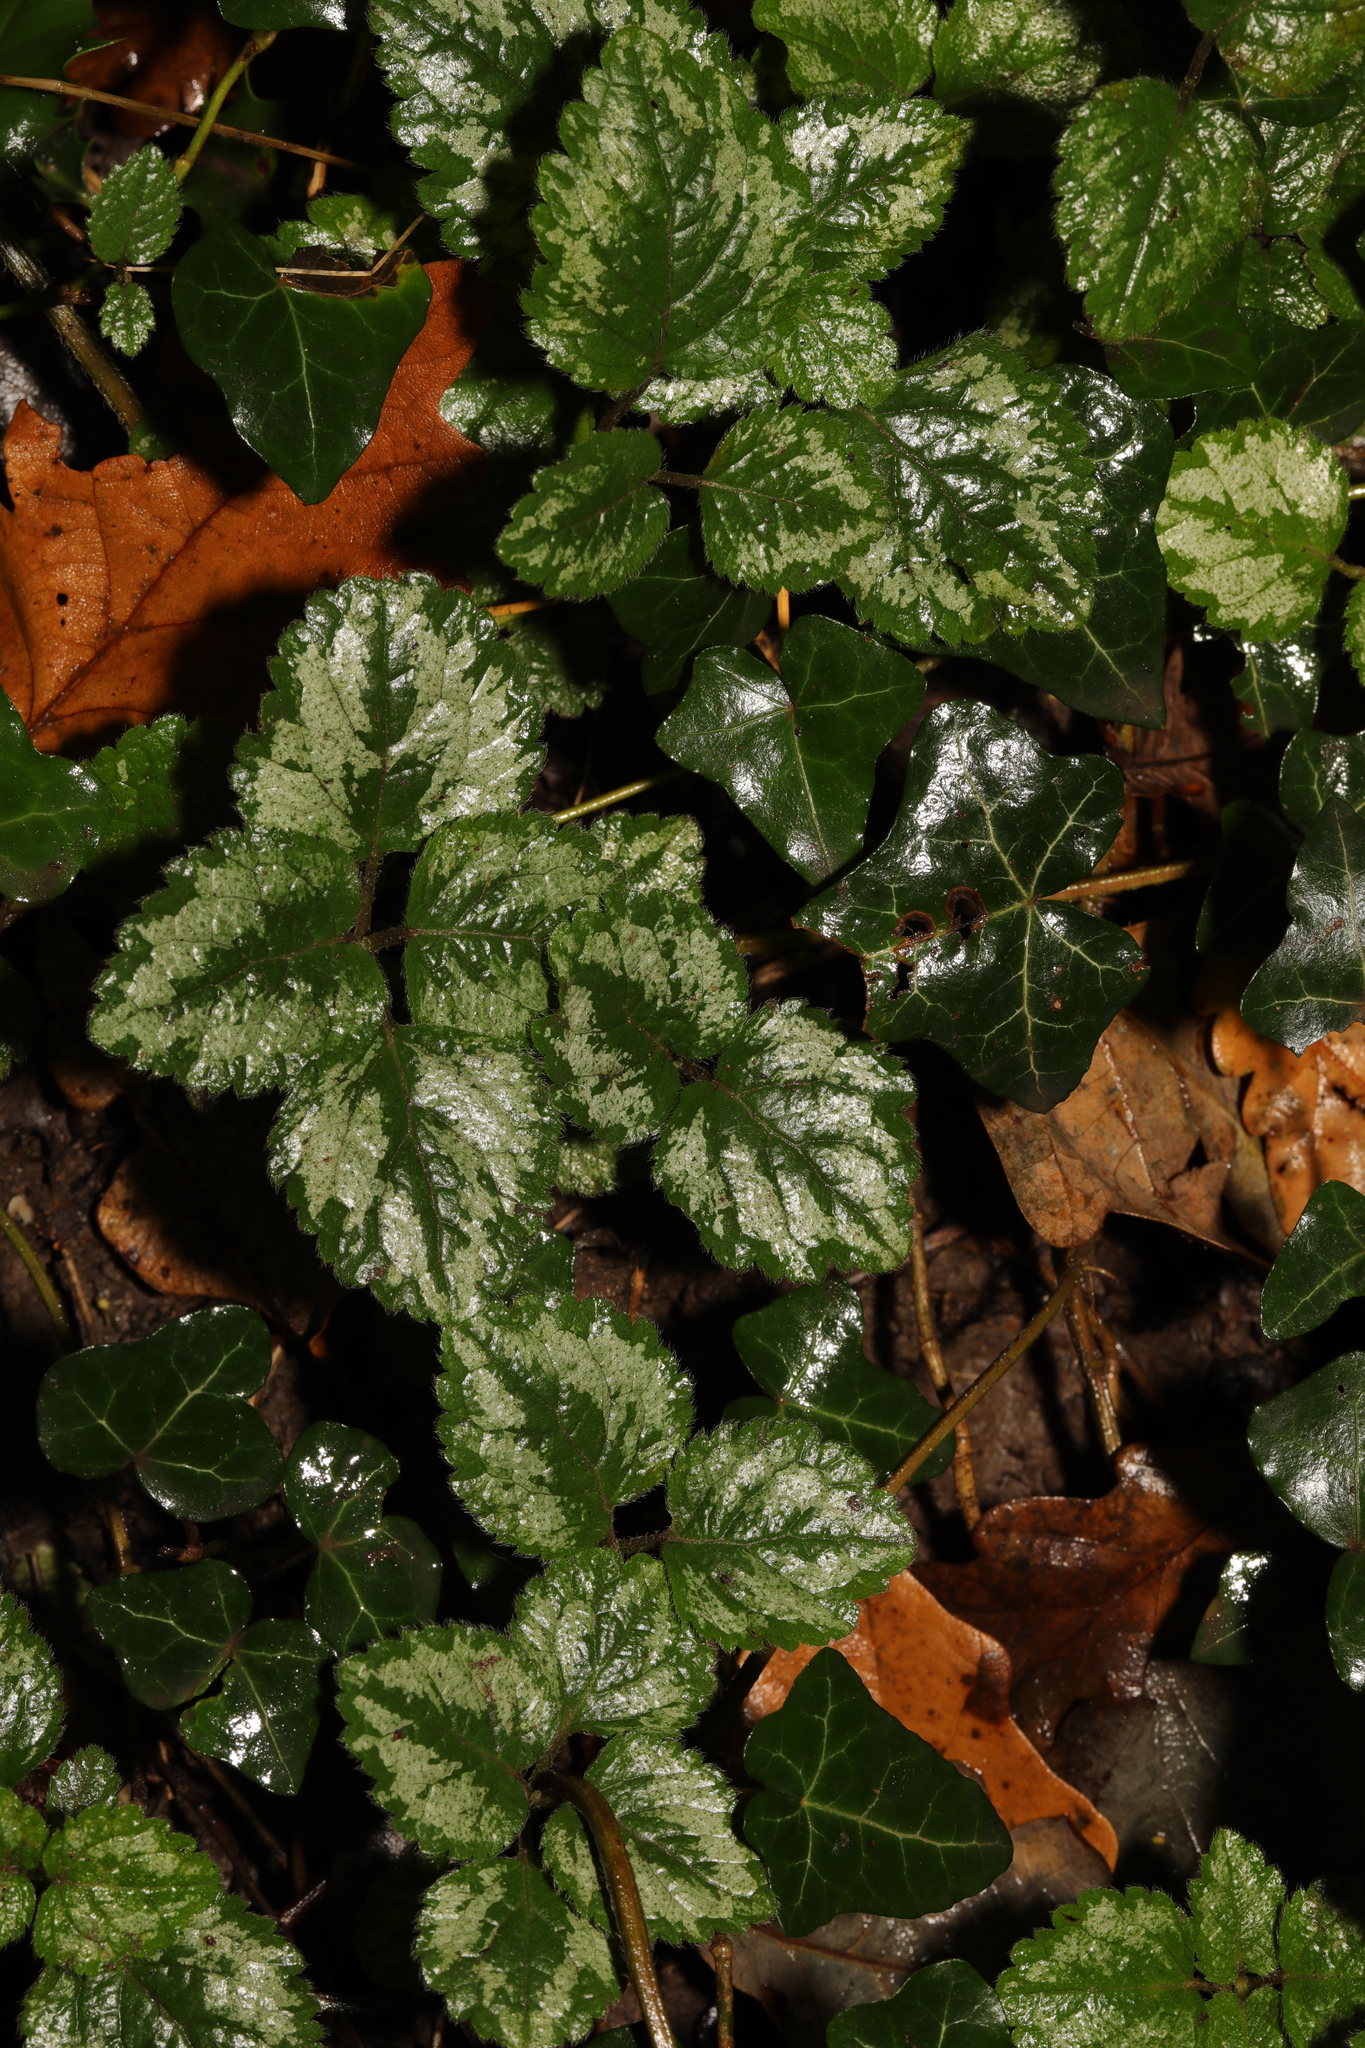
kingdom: Plantae
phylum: Tracheophyta
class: Magnoliopsida
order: Lamiales
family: Lamiaceae
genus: Lamium
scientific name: Lamium galeobdolon
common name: Yellow archangel
